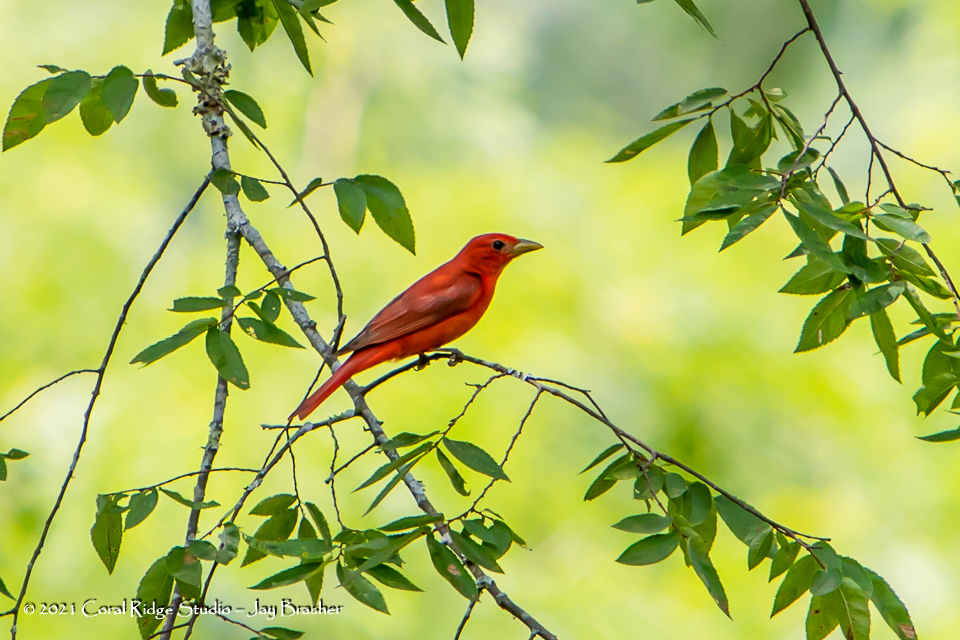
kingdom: Animalia
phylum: Chordata
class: Aves
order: Passeriformes
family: Cardinalidae
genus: Piranga
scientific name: Piranga rubra
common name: Summer tanager
